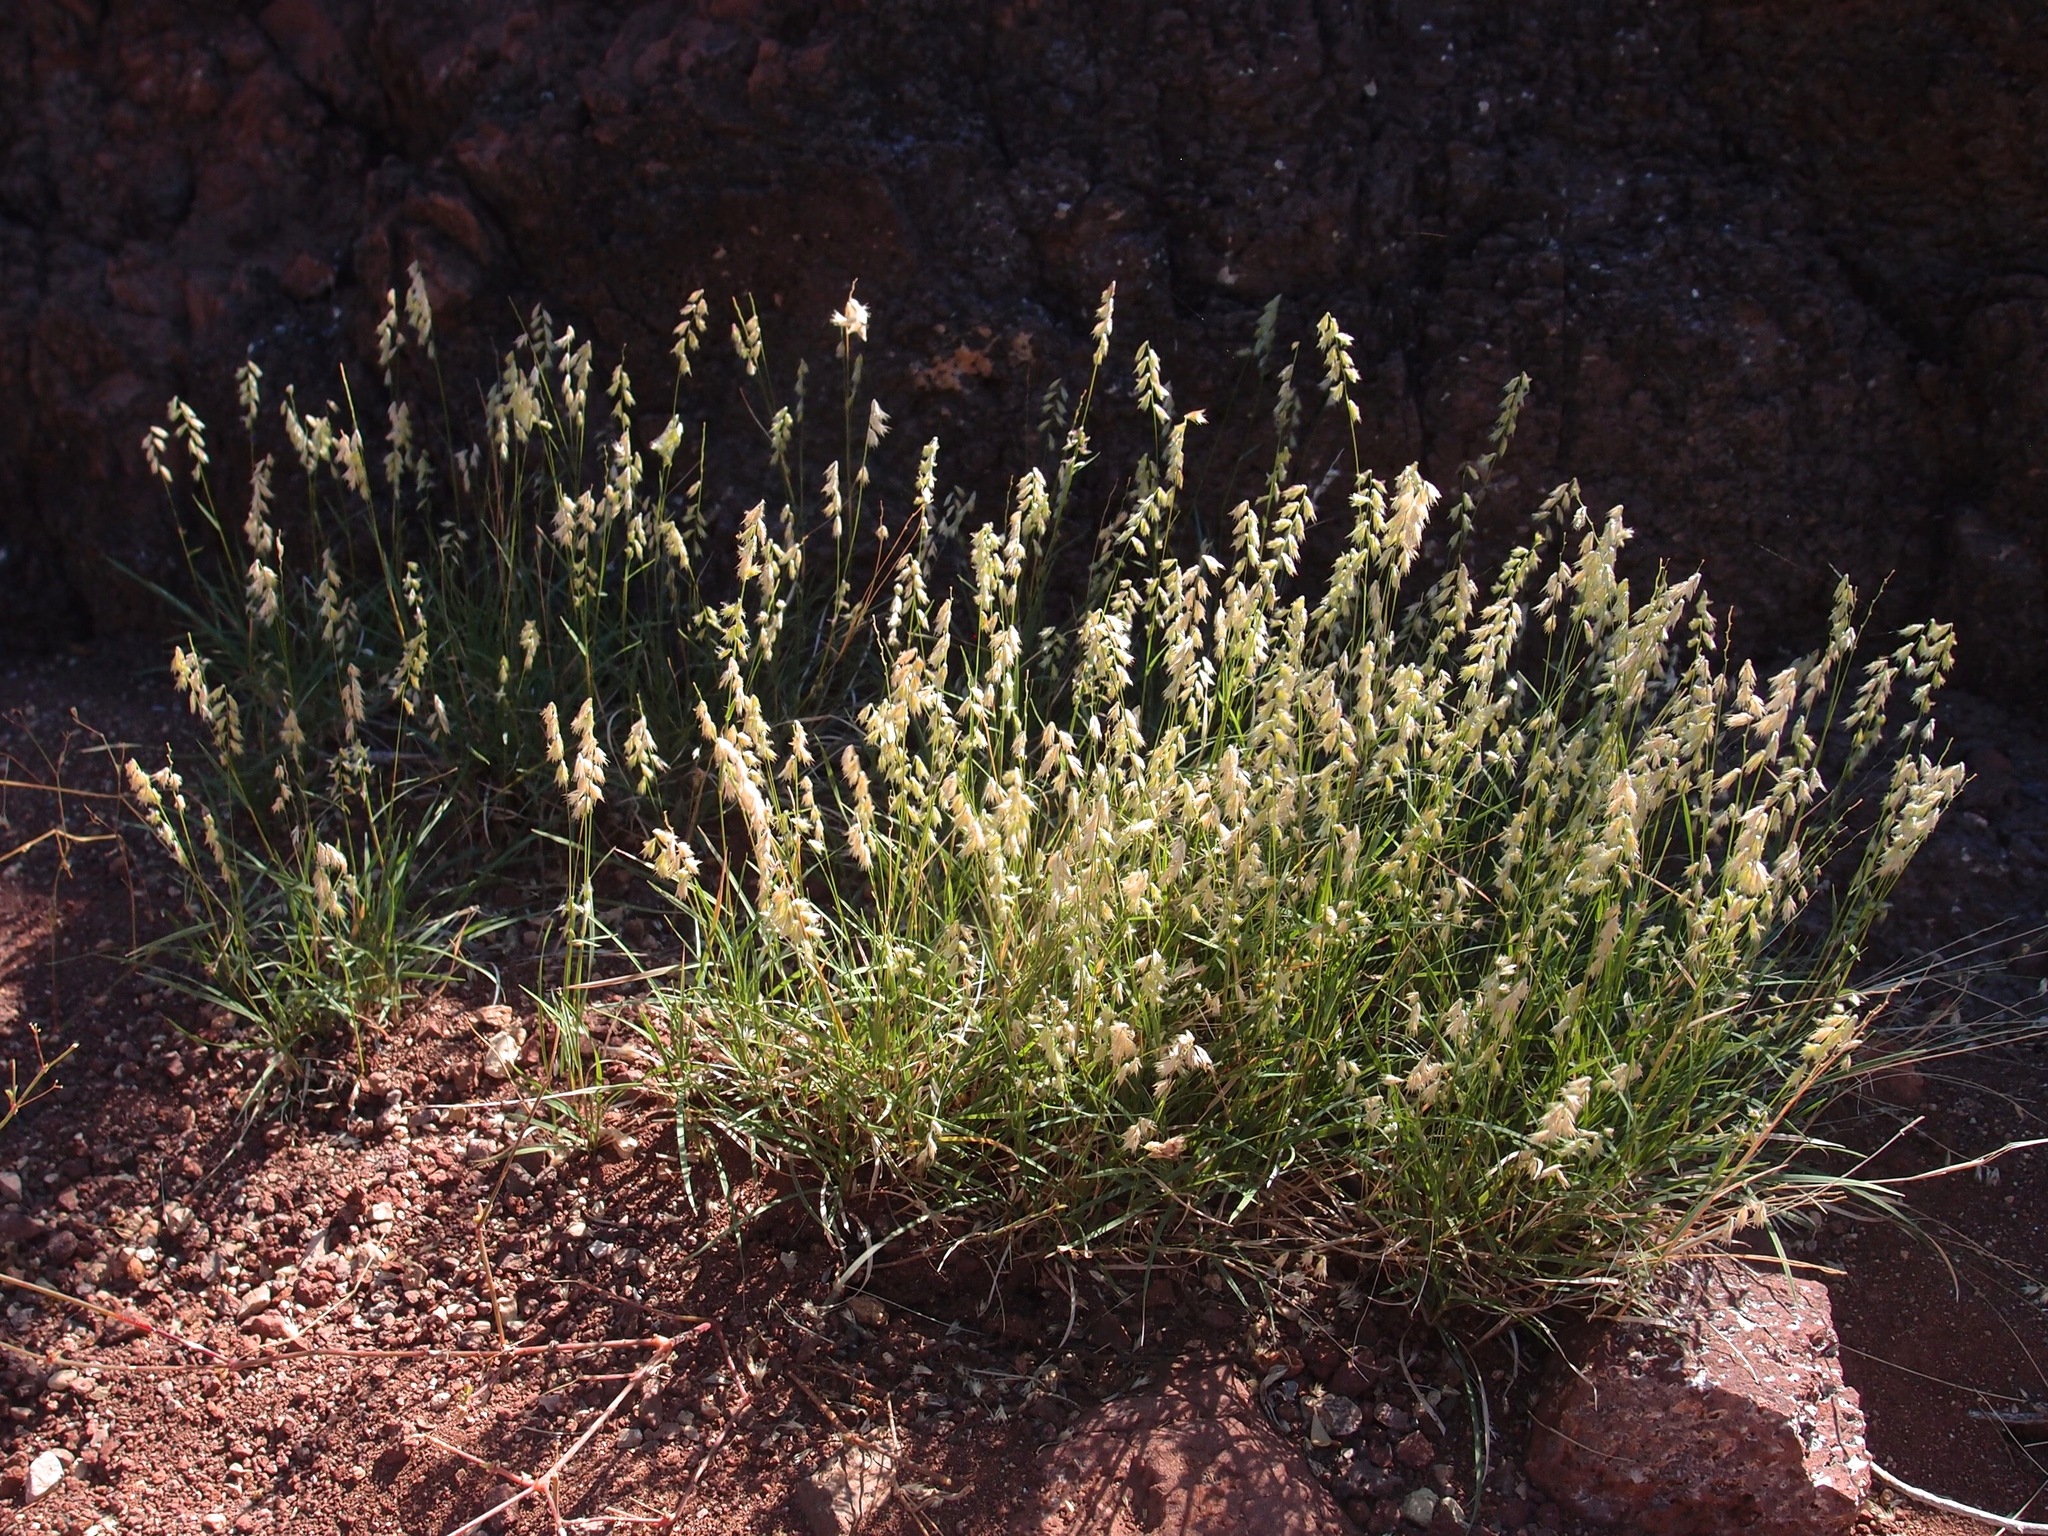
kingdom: Plantae
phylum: Tracheophyta
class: Liliopsida
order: Poales
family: Poaceae
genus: Bouteloua
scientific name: Bouteloua diversispicula
